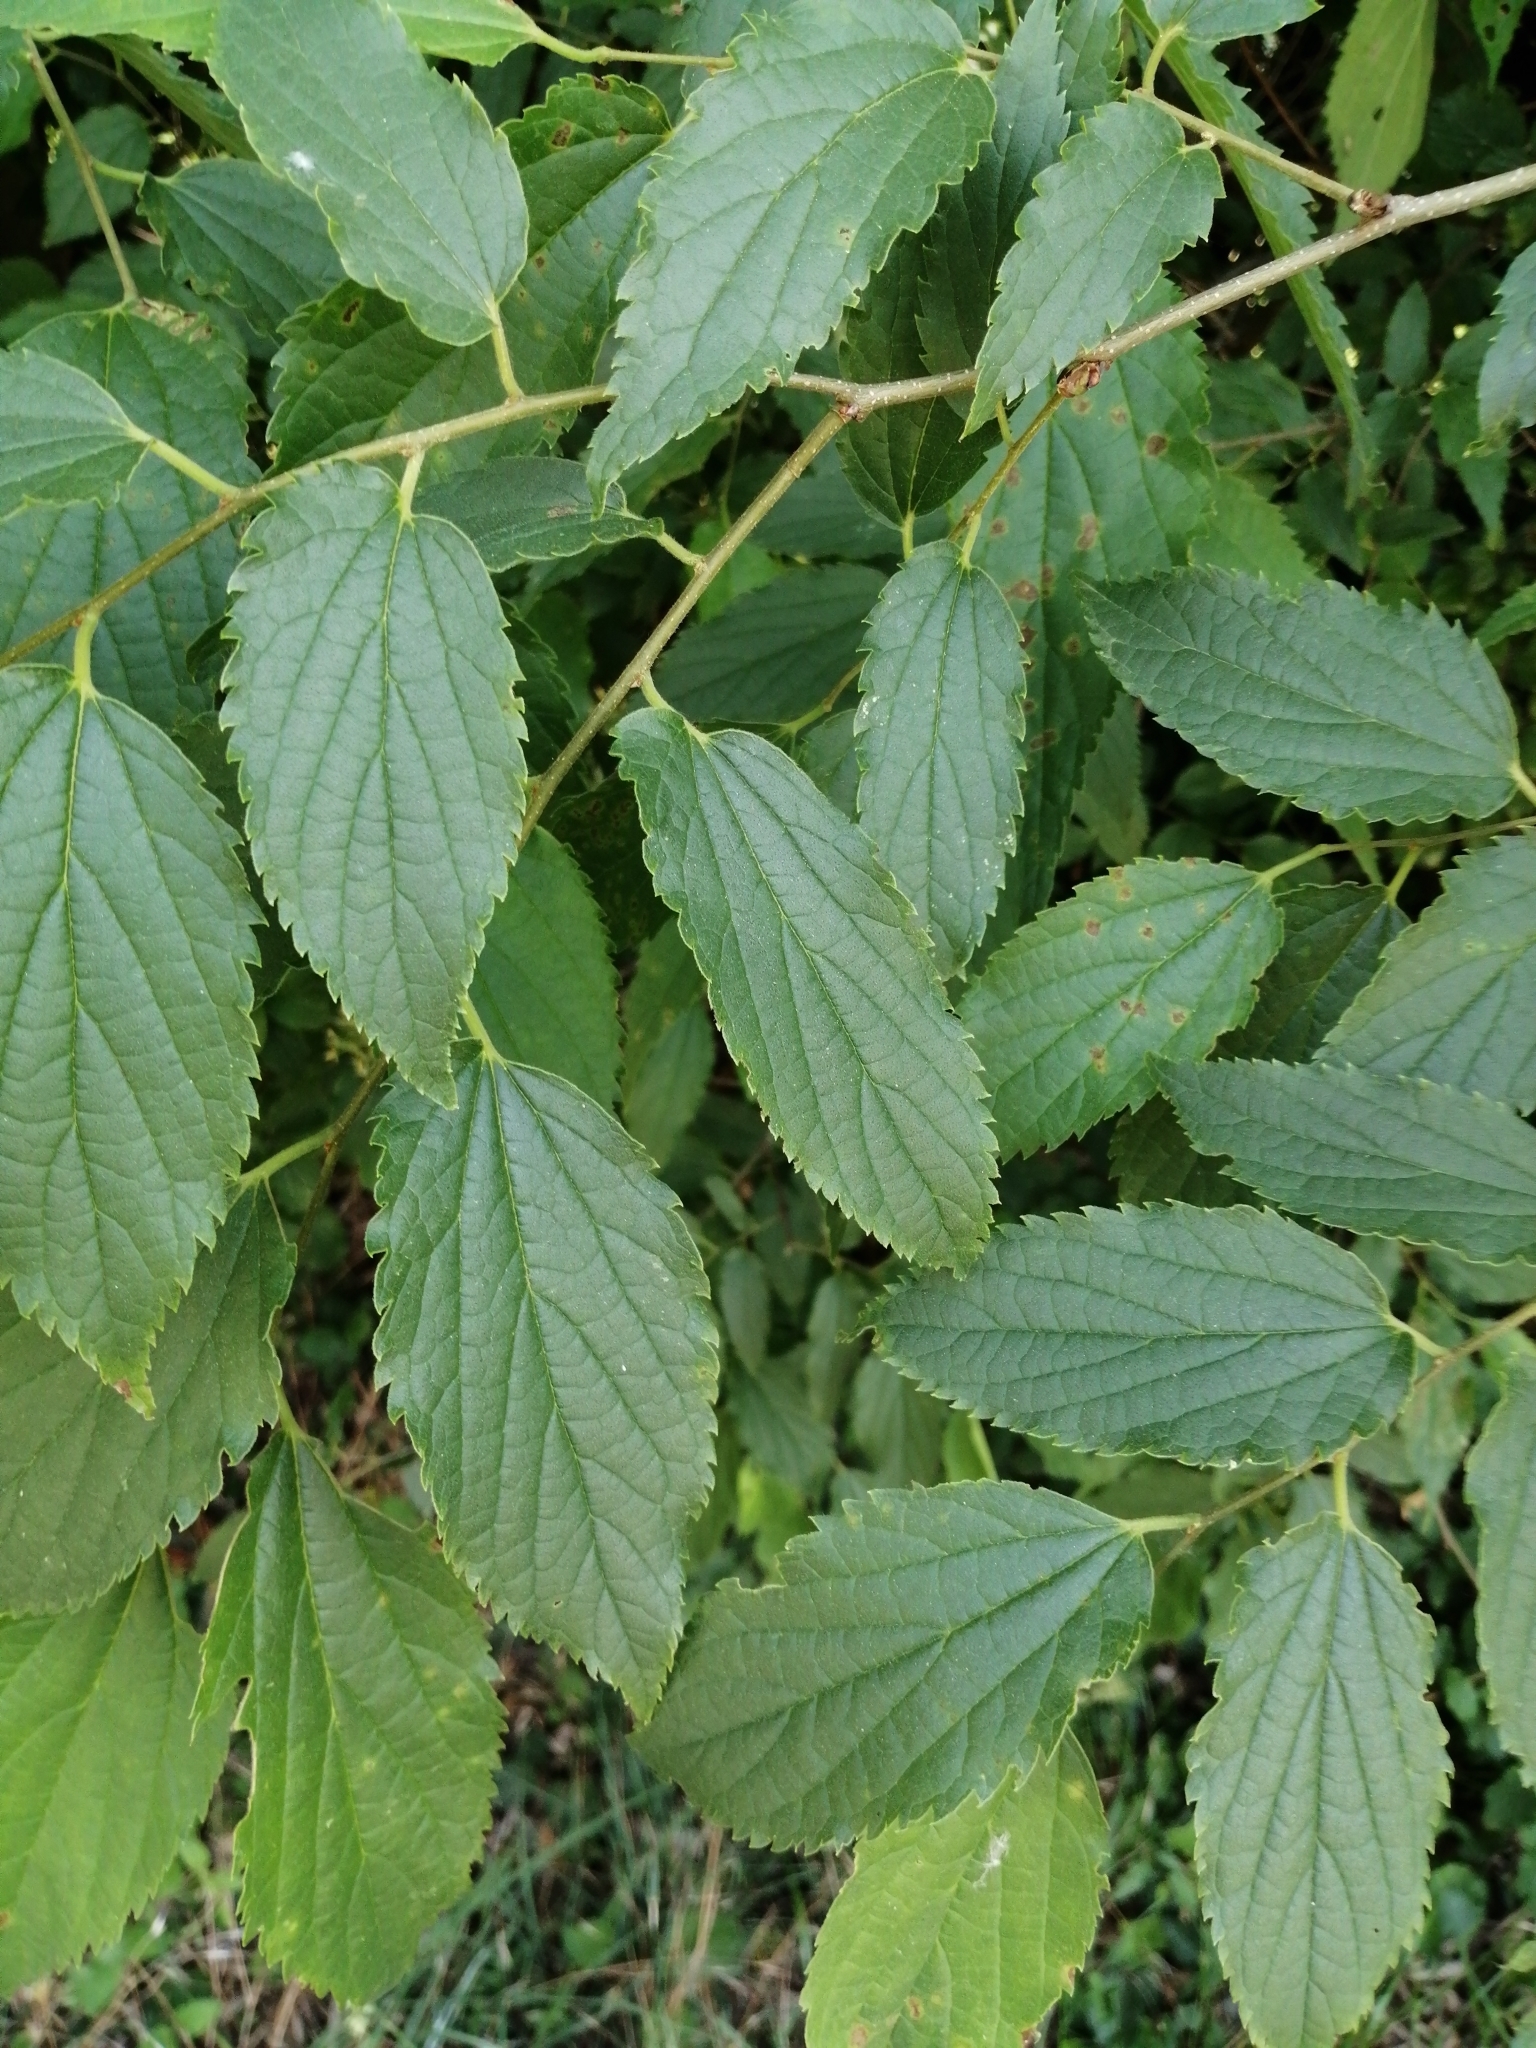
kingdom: Plantae
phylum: Tracheophyta
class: Magnoliopsida
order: Rosales
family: Cannabaceae
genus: Celtis
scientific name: Celtis australis
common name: European hackberry
